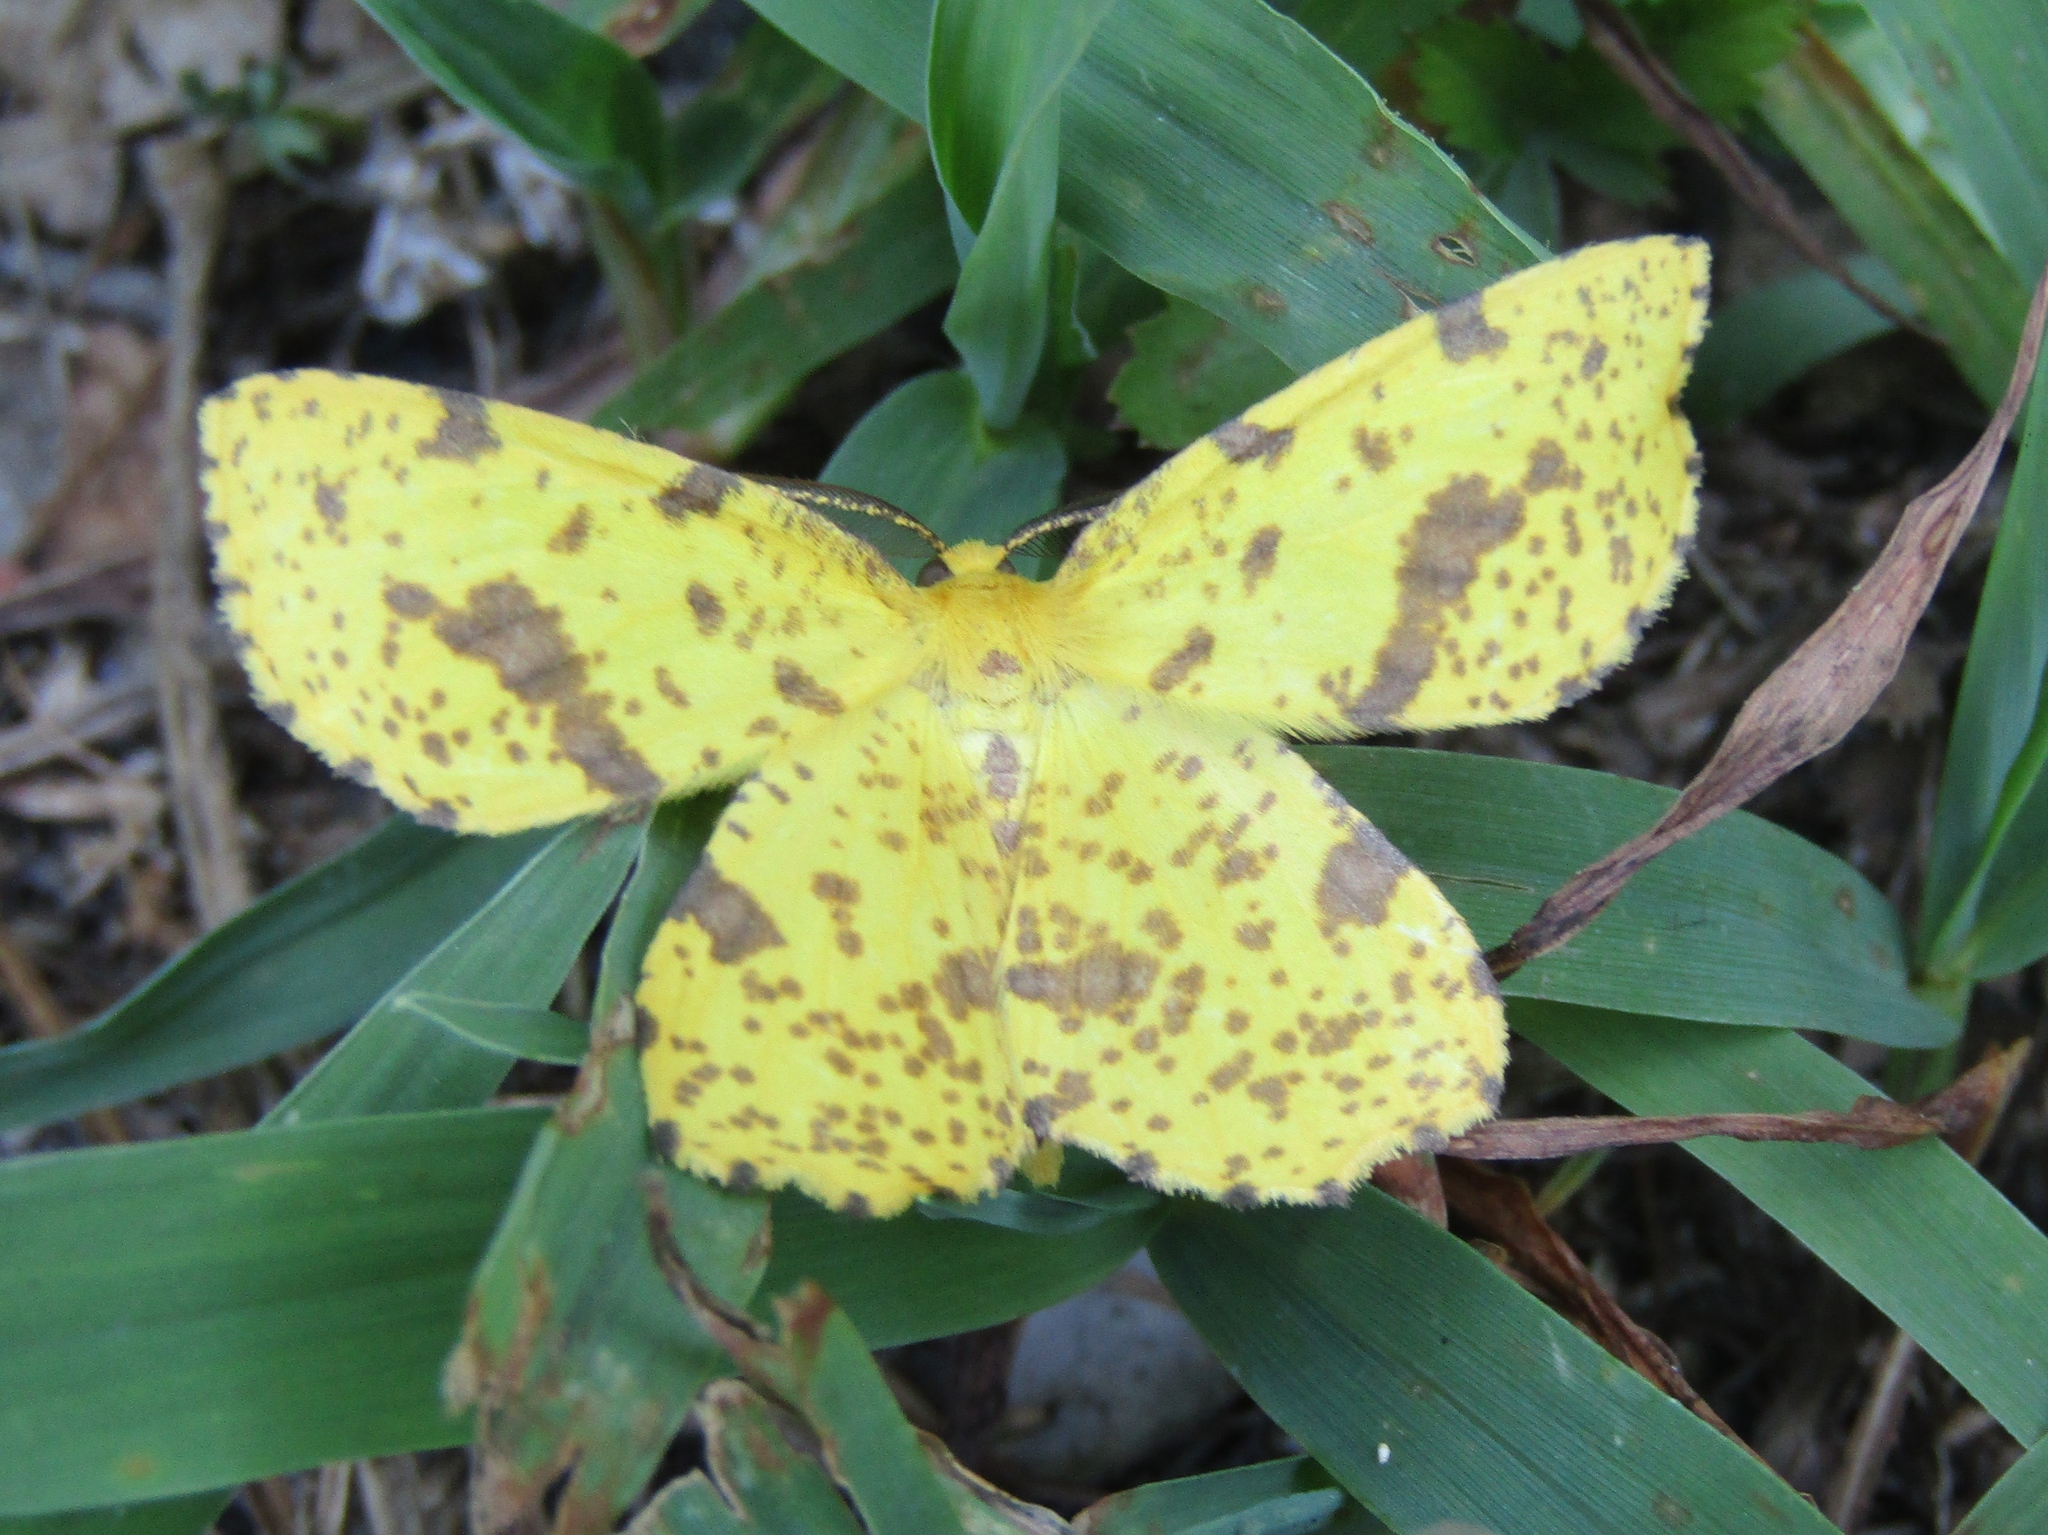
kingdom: Animalia
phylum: Arthropoda
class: Insecta
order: Lepidoptera
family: Geometridae
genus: Xanthotype
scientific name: Xanthotype
